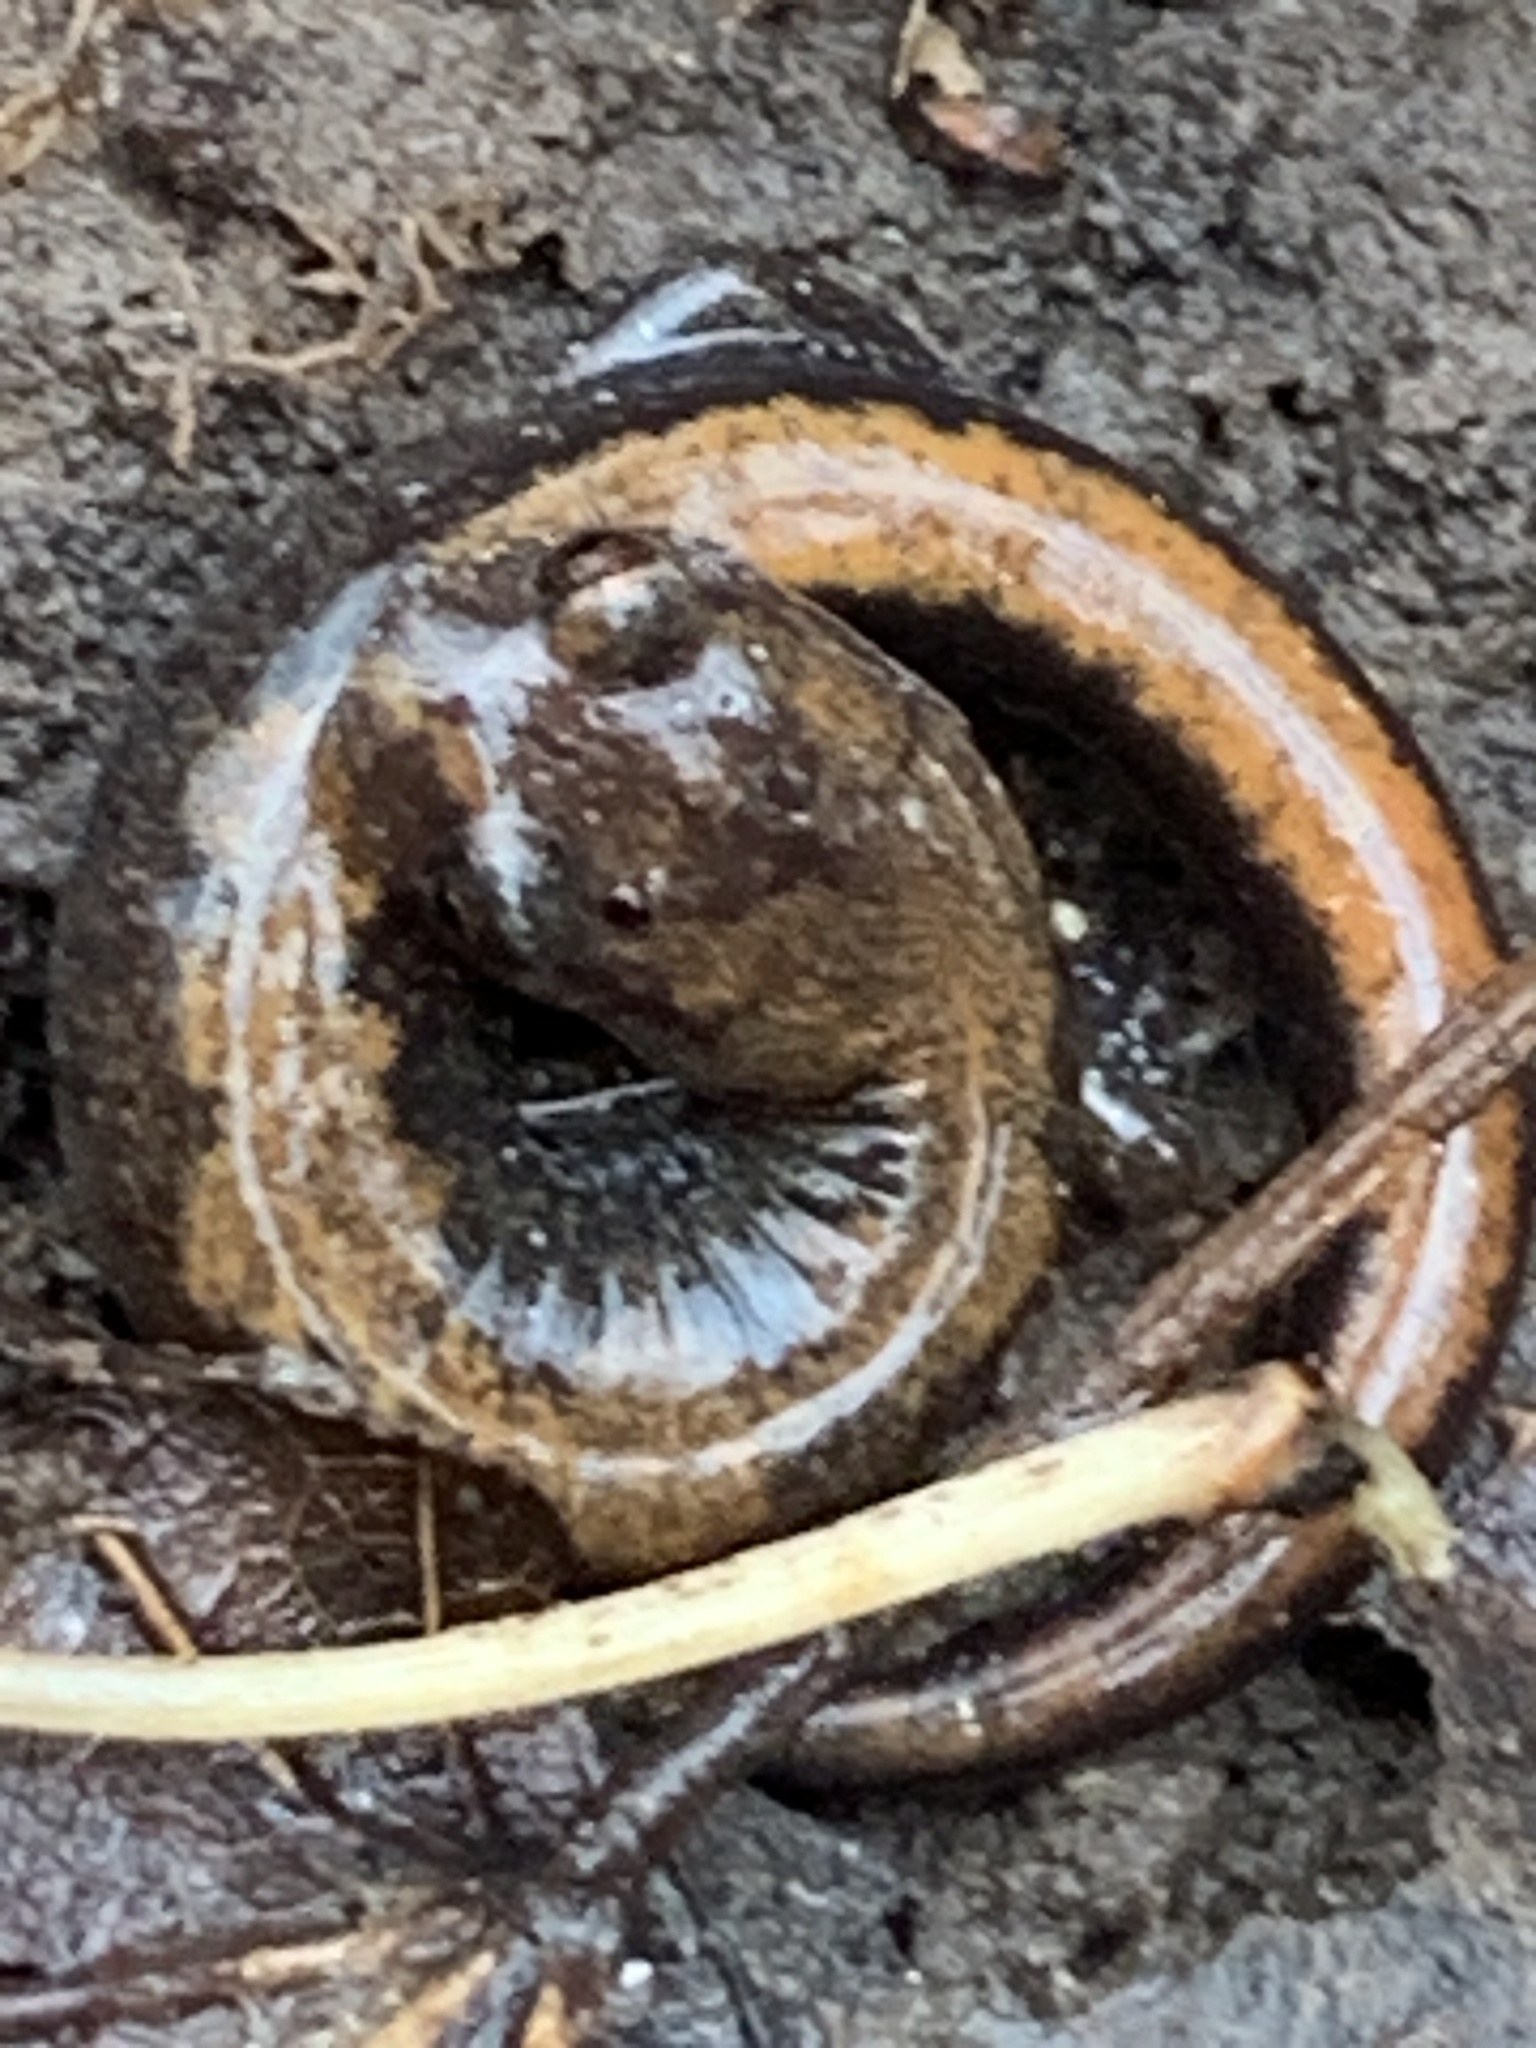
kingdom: Animalia
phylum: Chordata
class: Amphibia
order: Caudata
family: Plethodontidae
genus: Plethodon
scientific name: Plethodon dorsalis
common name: Northern zigzag salamander
